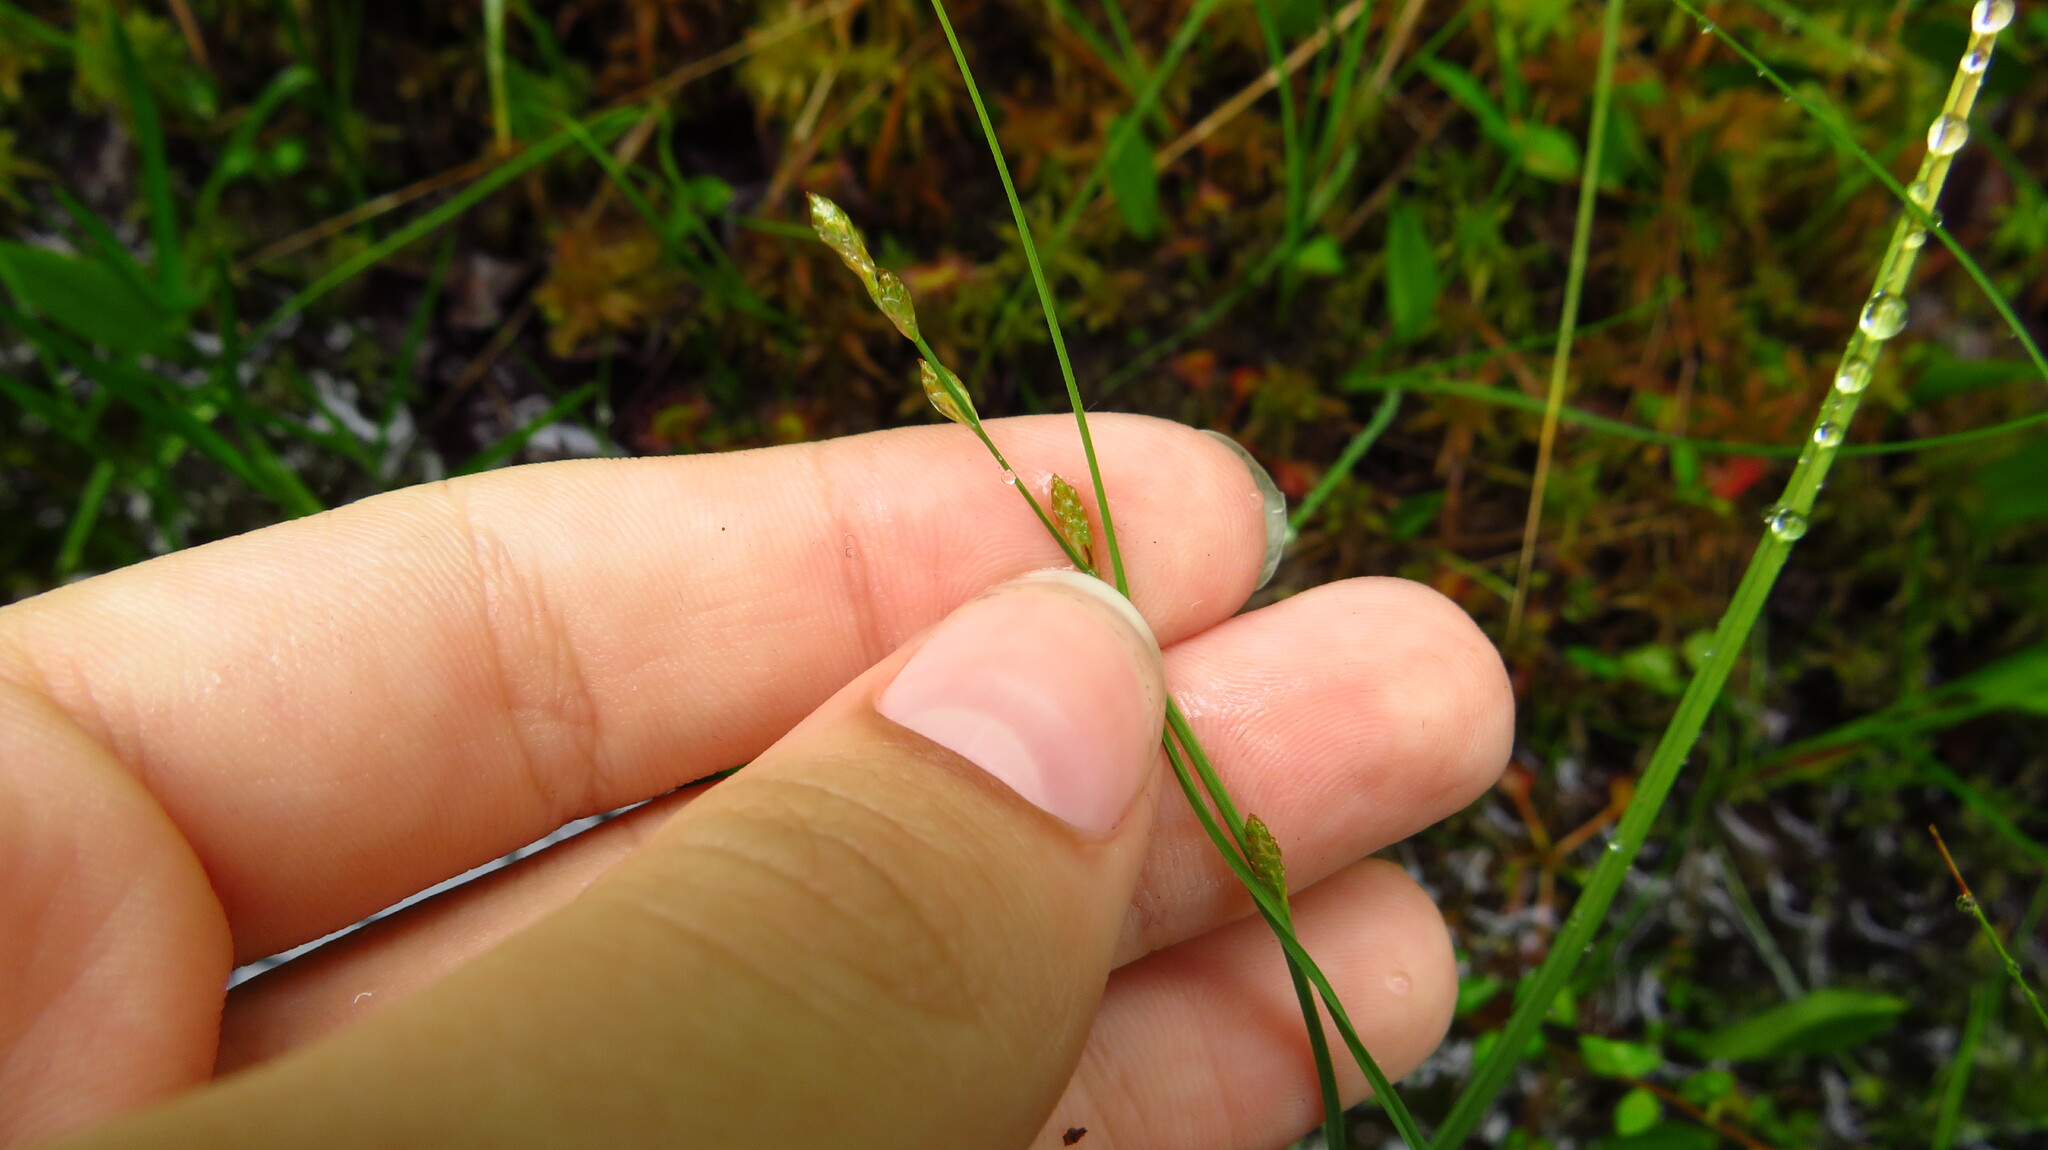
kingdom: Plantae
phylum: Tracheophyta
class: Liliopsida
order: Poales
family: Cyperaceae
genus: Carex
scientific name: Carex
